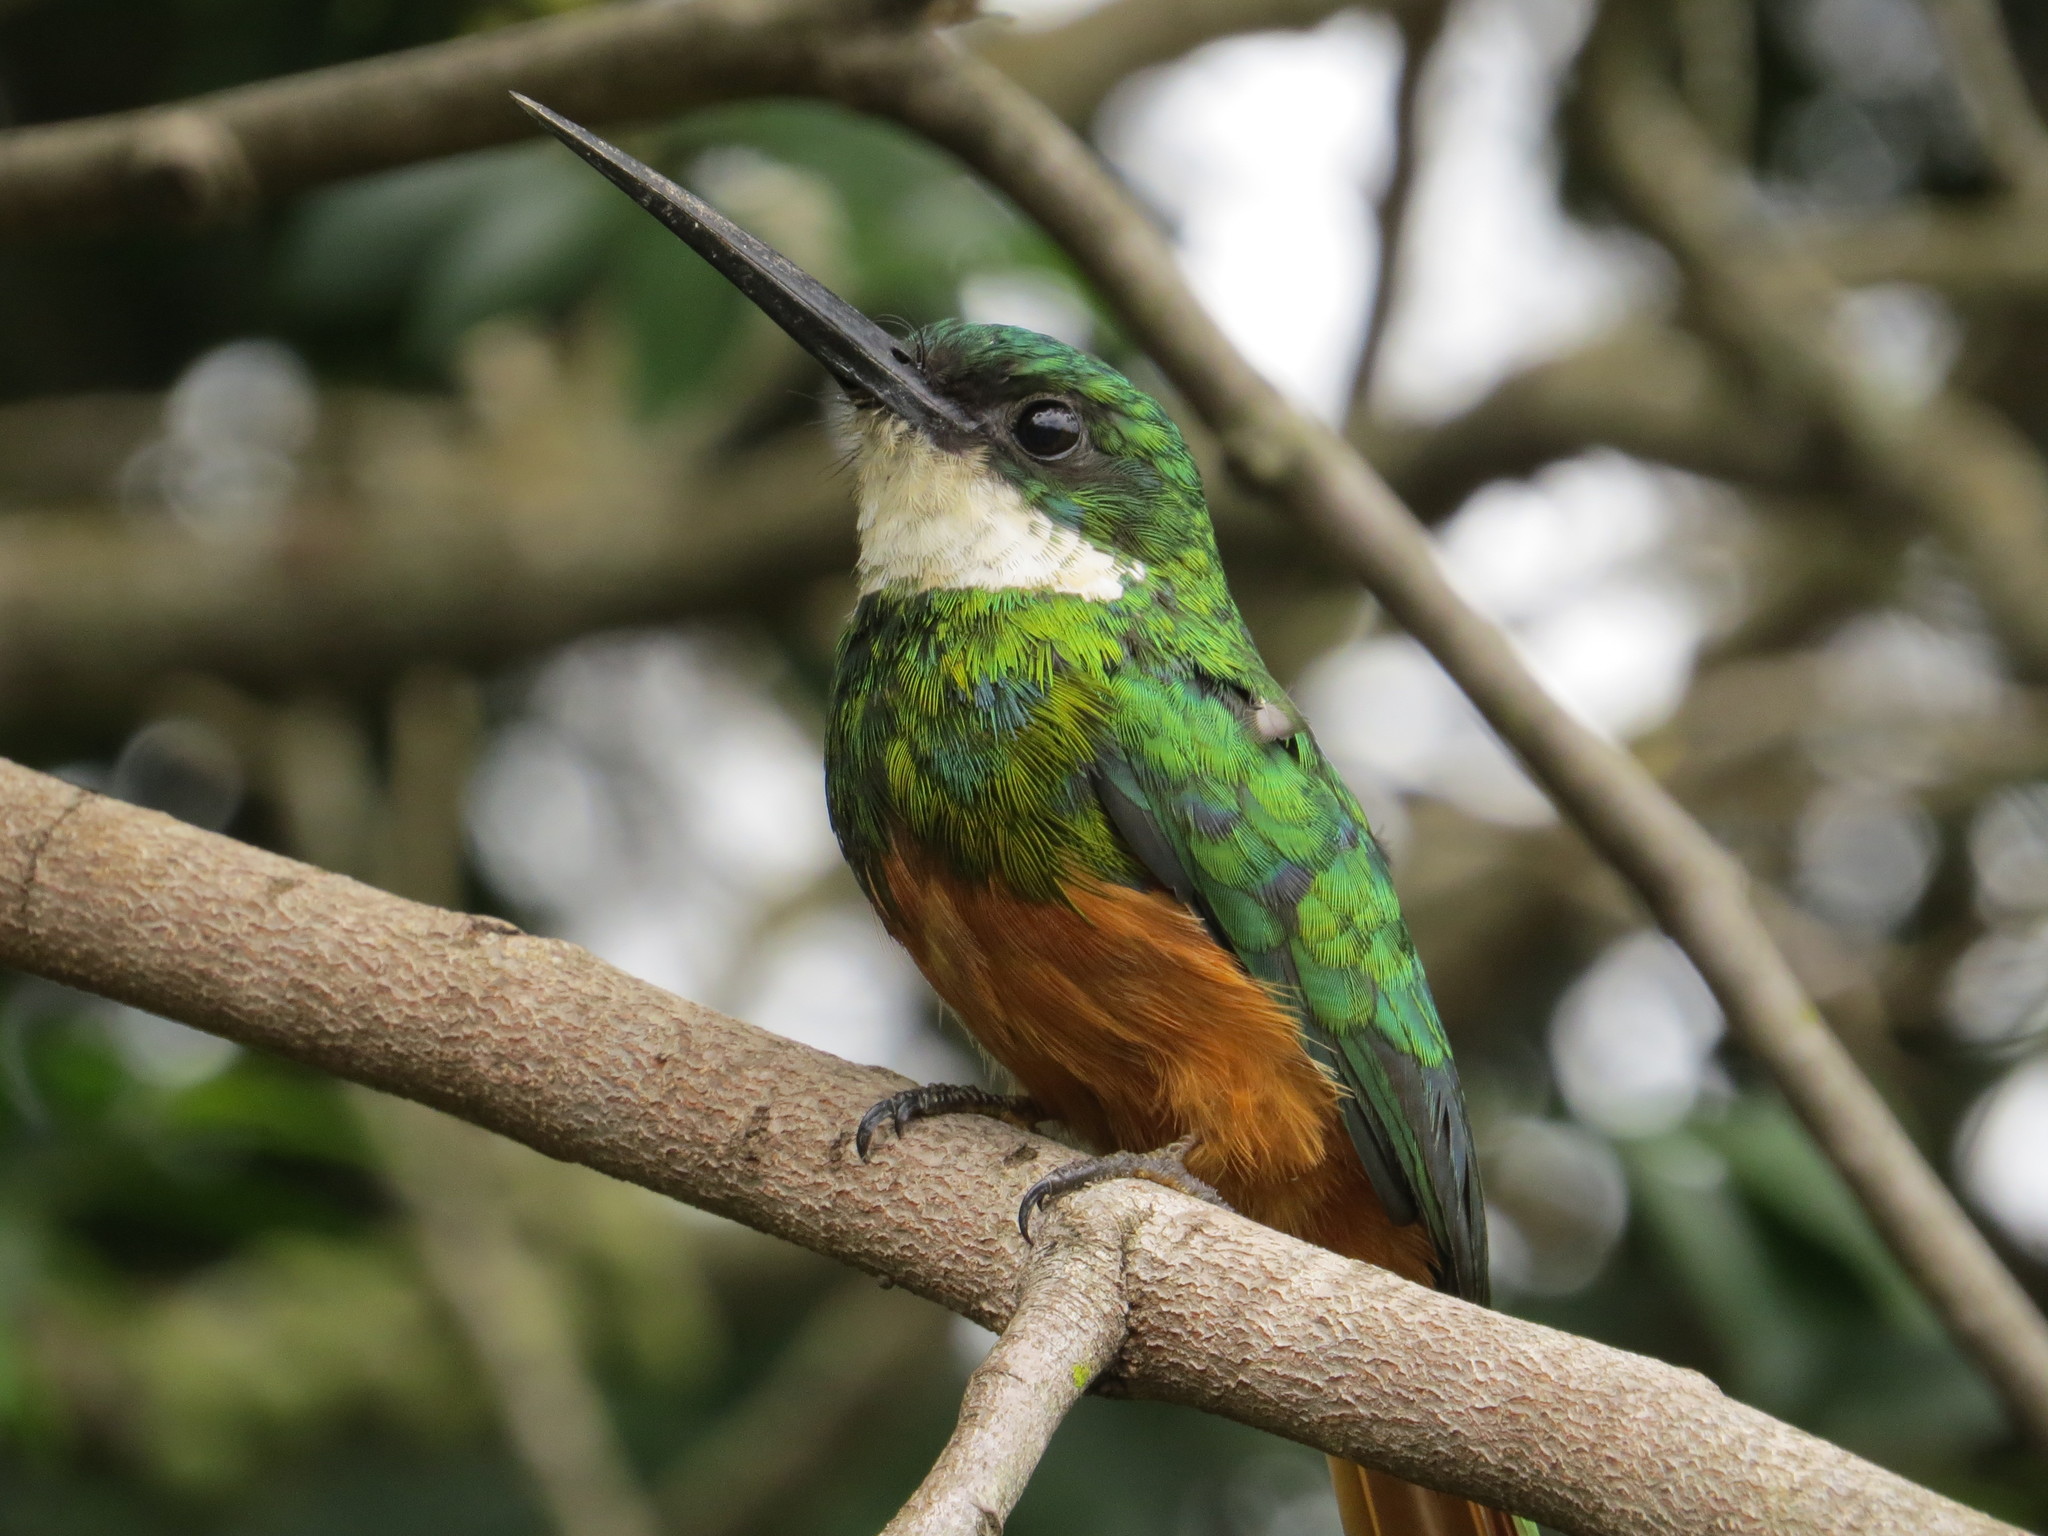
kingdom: Animalia
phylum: Chordata
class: Aves
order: Piciformes
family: Galbulidae
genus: Galbula
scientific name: Galbula ruficauda
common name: Rufous-tailed jacamar
